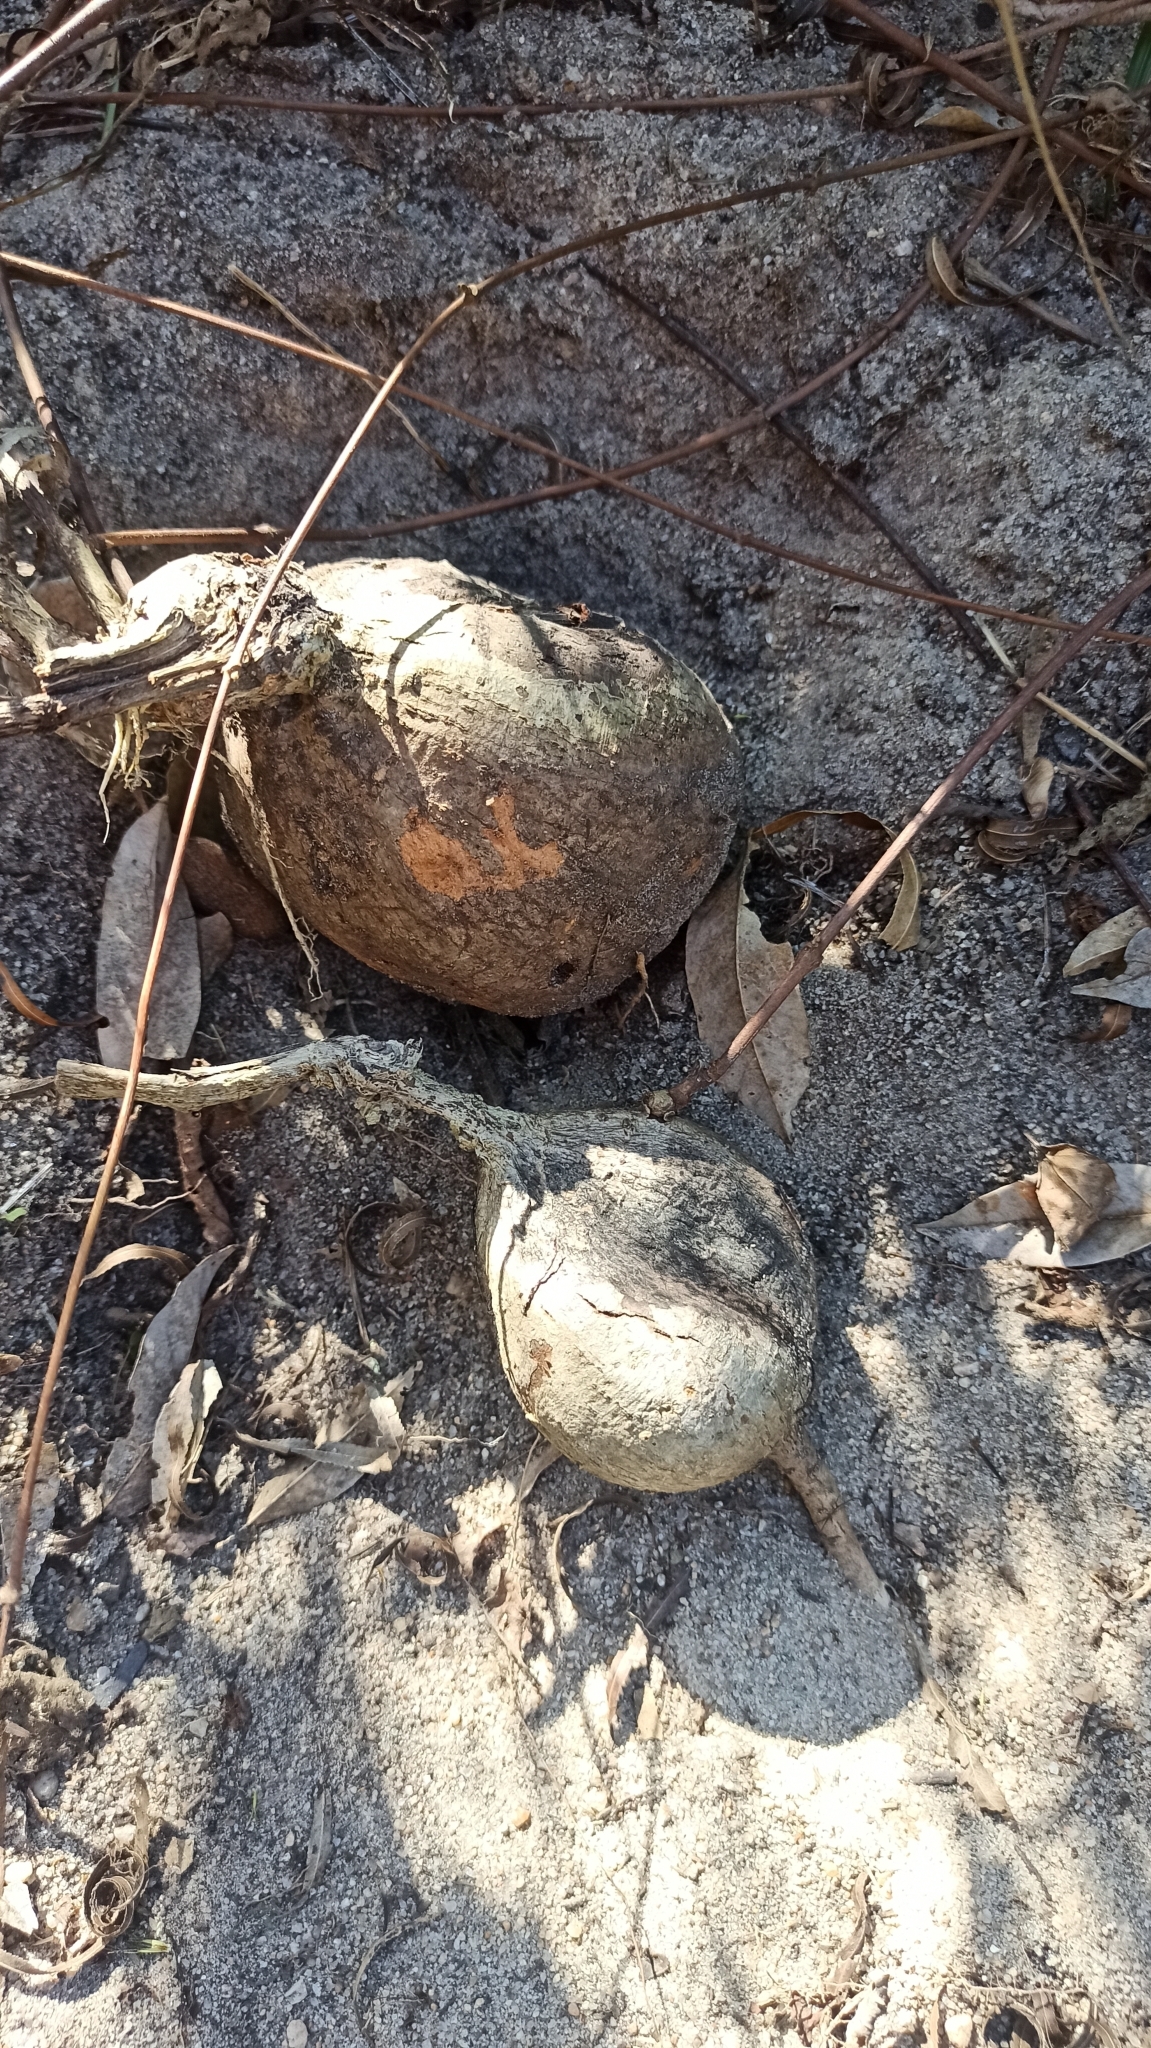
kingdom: Plantae
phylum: Tracheophyta
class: Magnoliopsida
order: Malpighiales
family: Malpighiaceae
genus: Stigmaphyllon
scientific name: Stigmaphyllon bonariense
